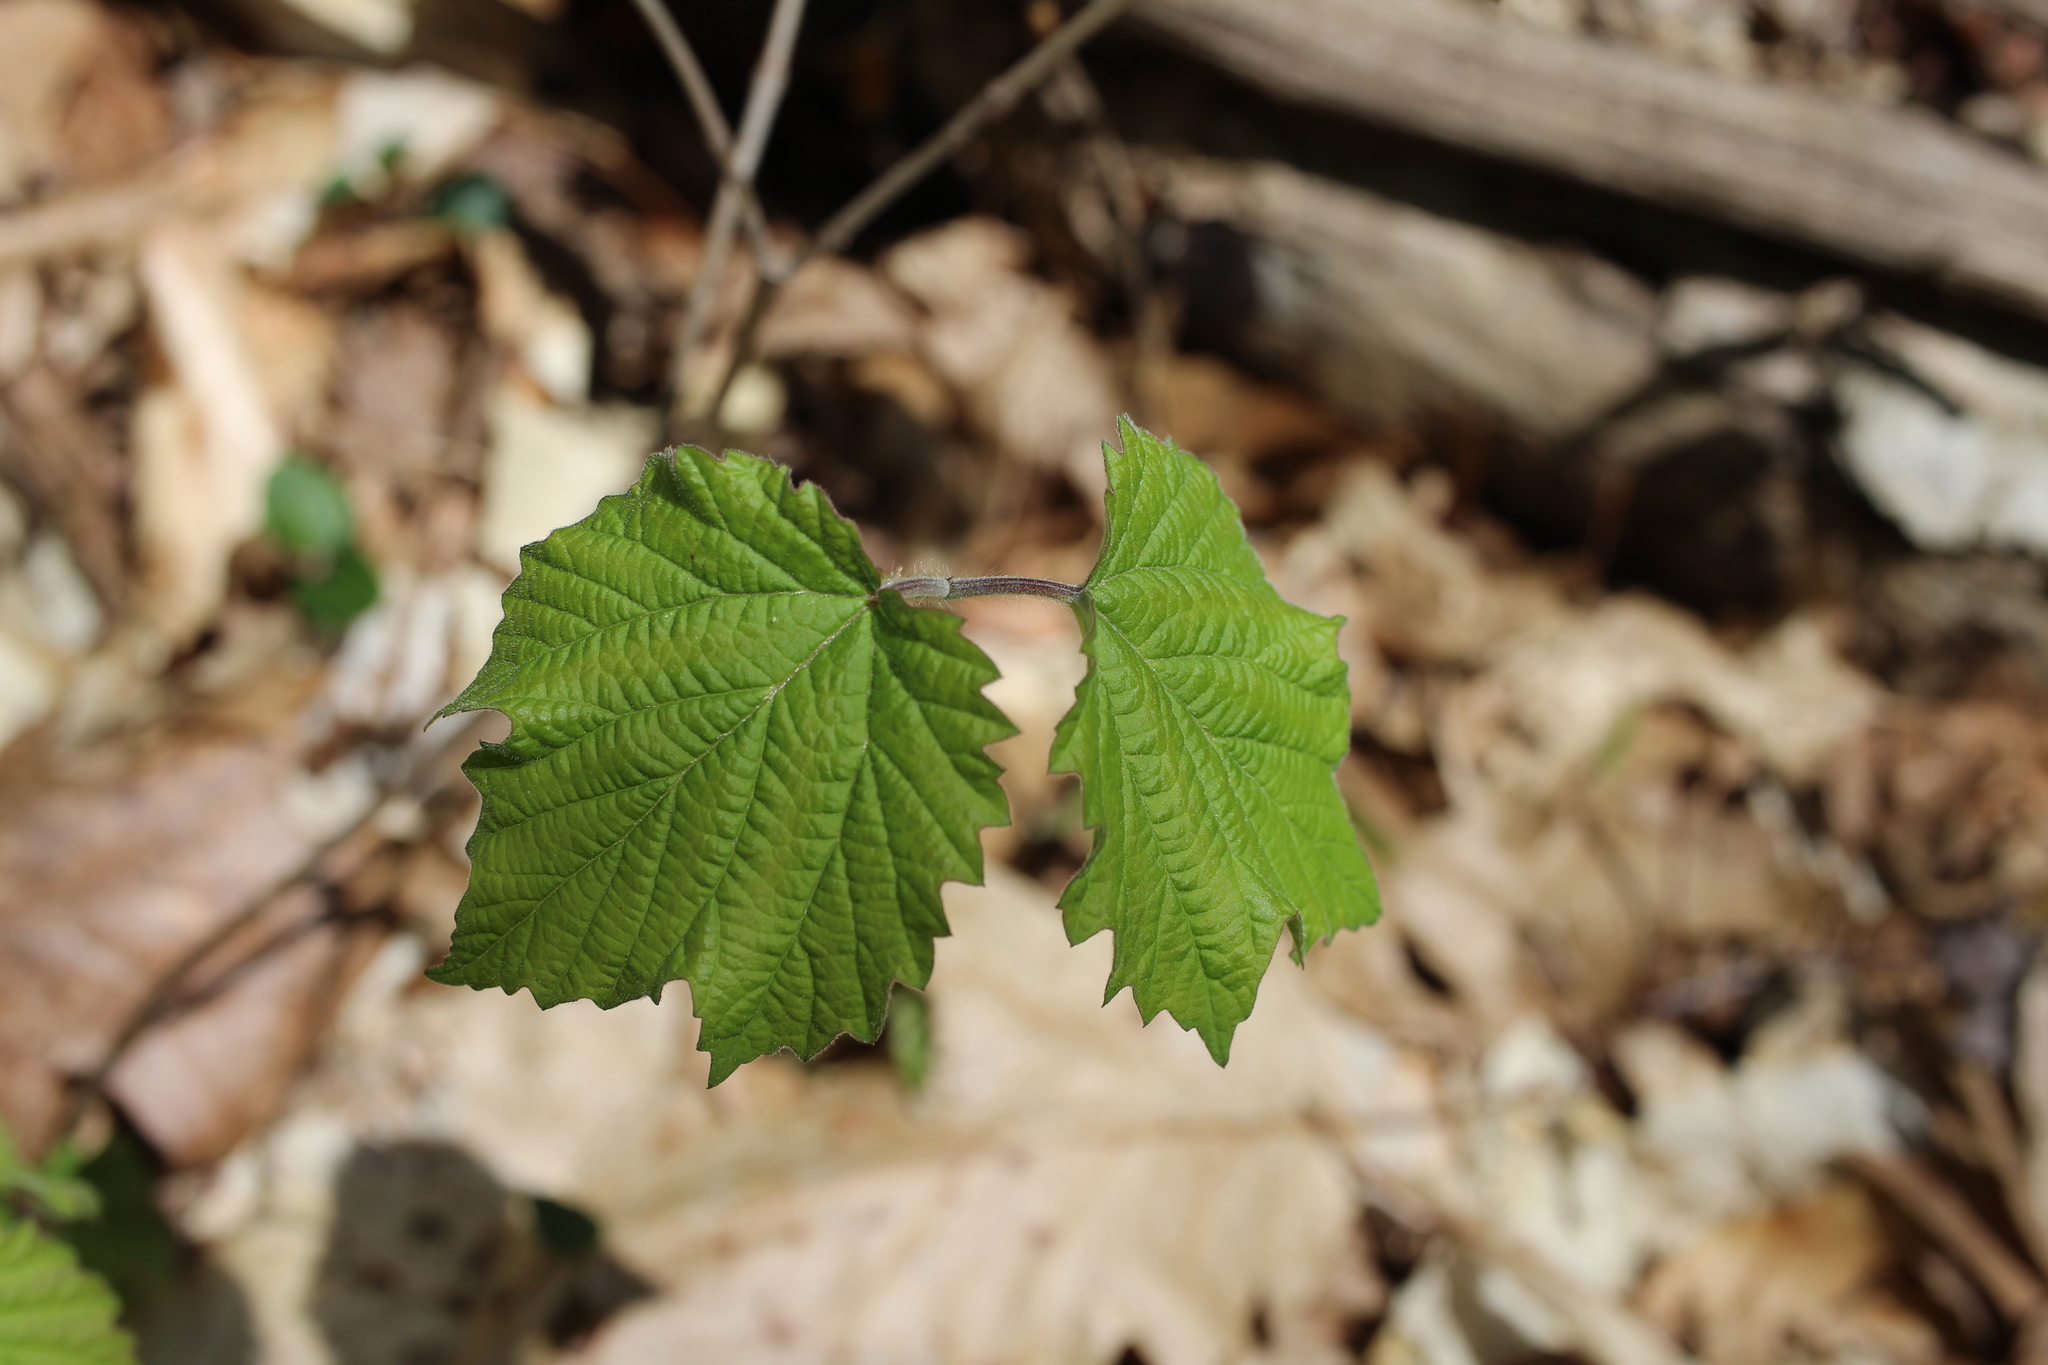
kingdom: Plantae
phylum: Tracheophyta
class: Magnoliopsida
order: Dipsacales
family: Viburnaceae
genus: Viburnum
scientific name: Viburnum acerifolium
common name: Dockmackie
